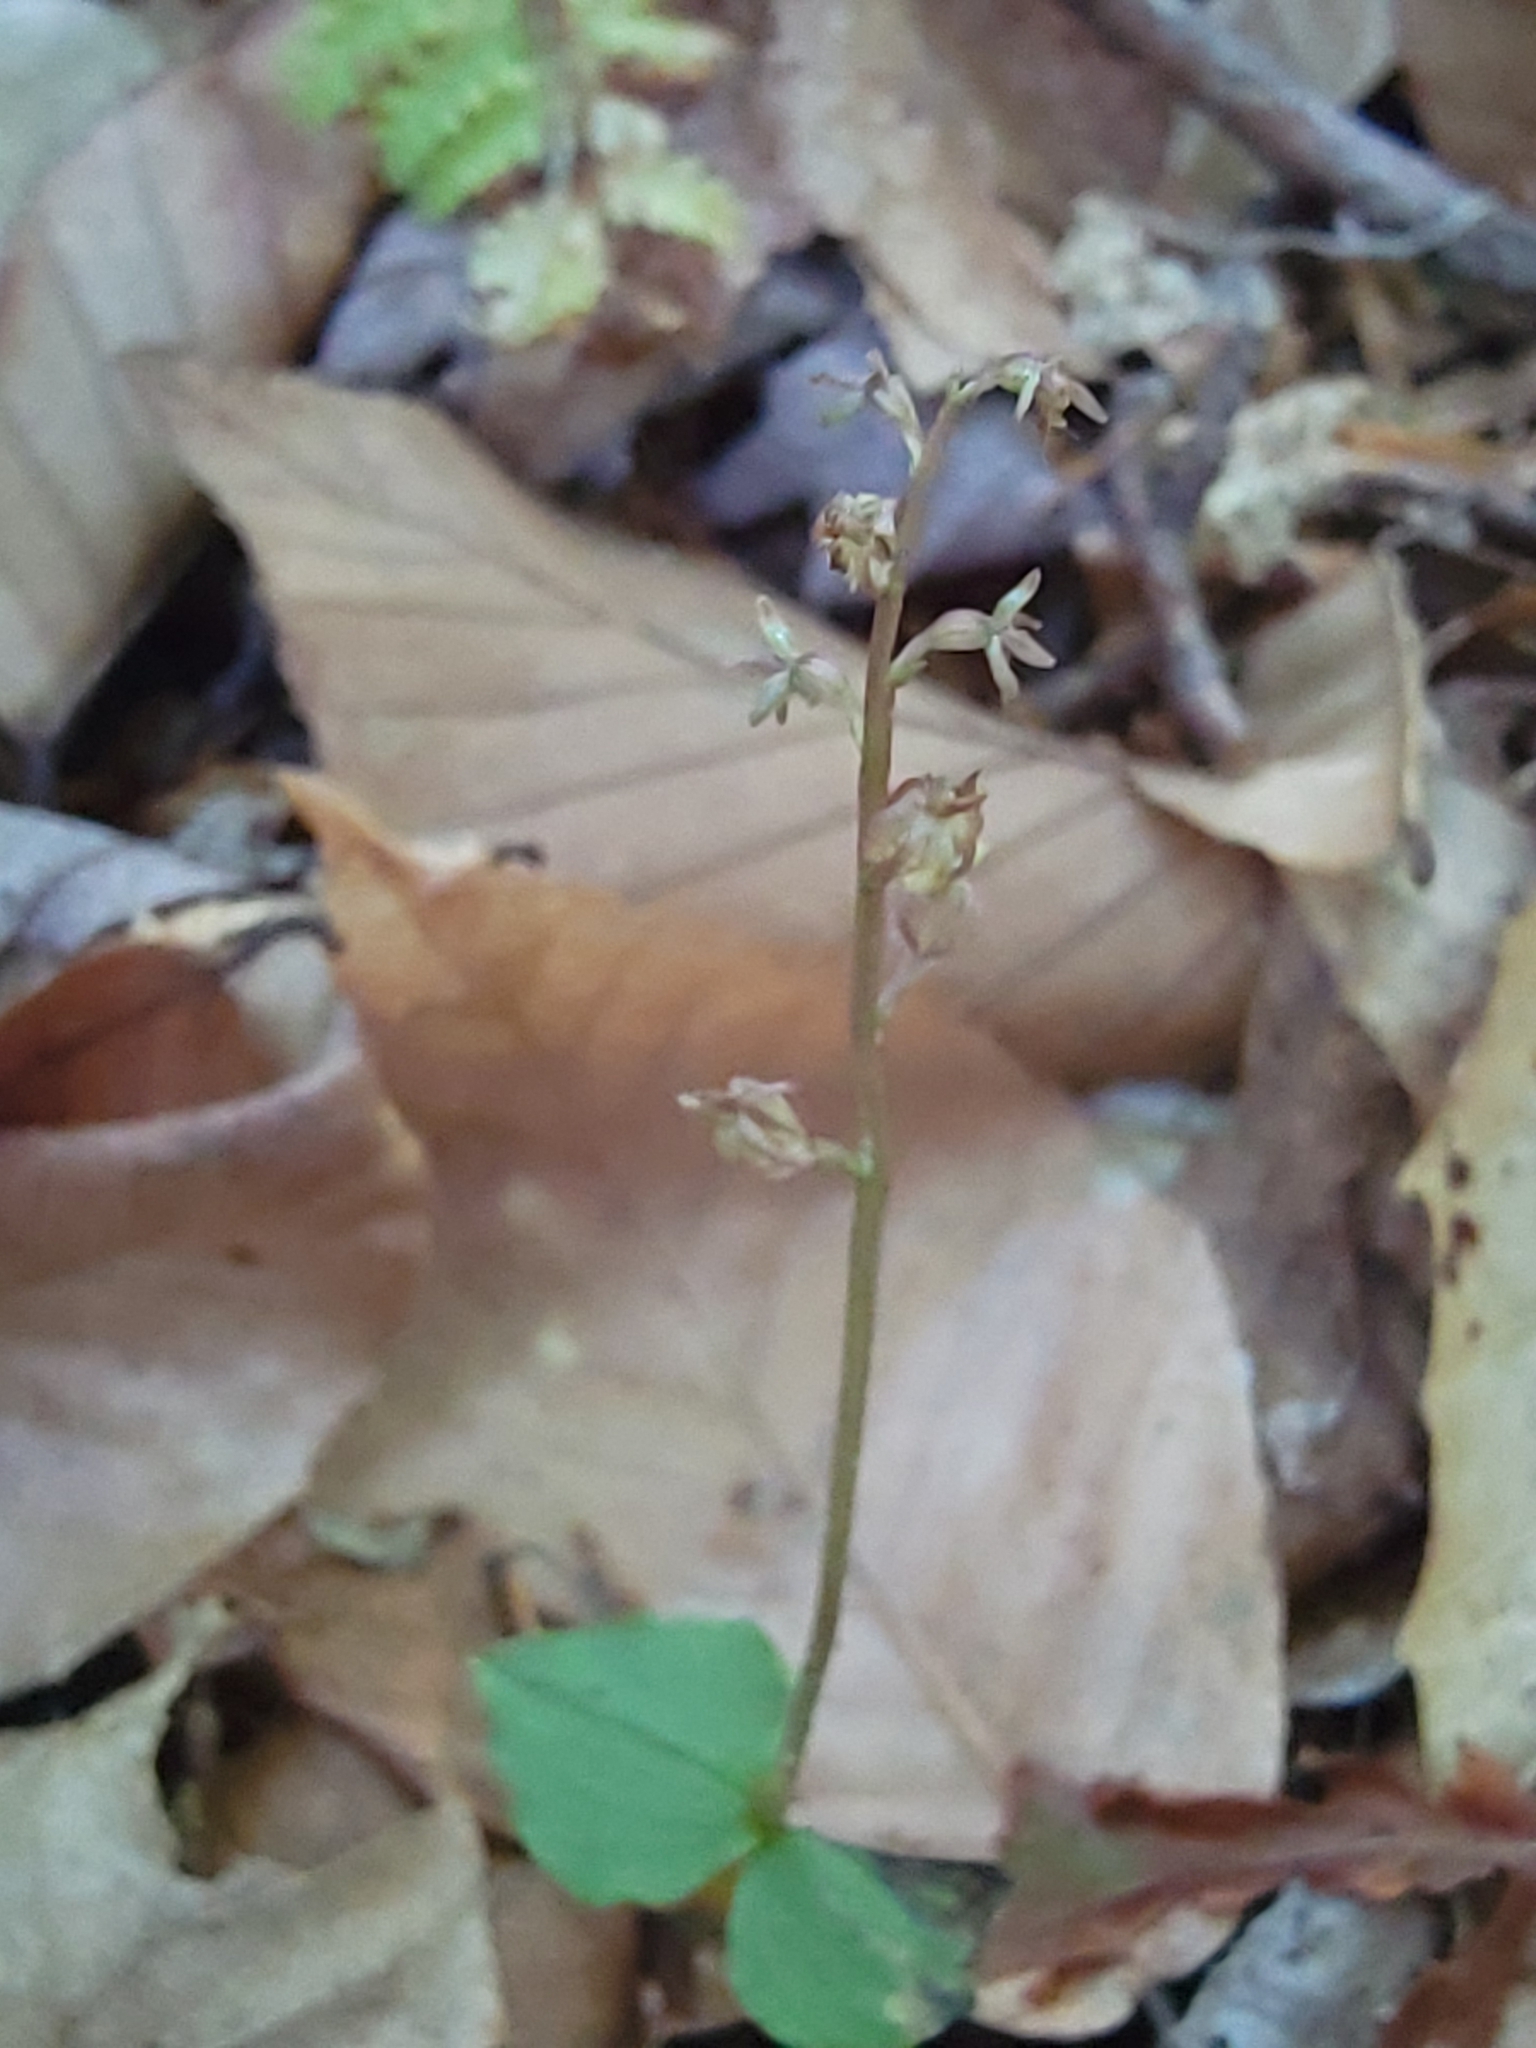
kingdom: Plantae
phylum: Tracheophyta
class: Liliopsida
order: Asparagales
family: Orchidaceae
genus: Neottia
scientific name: Neottia cordata
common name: Lesser twayblade
